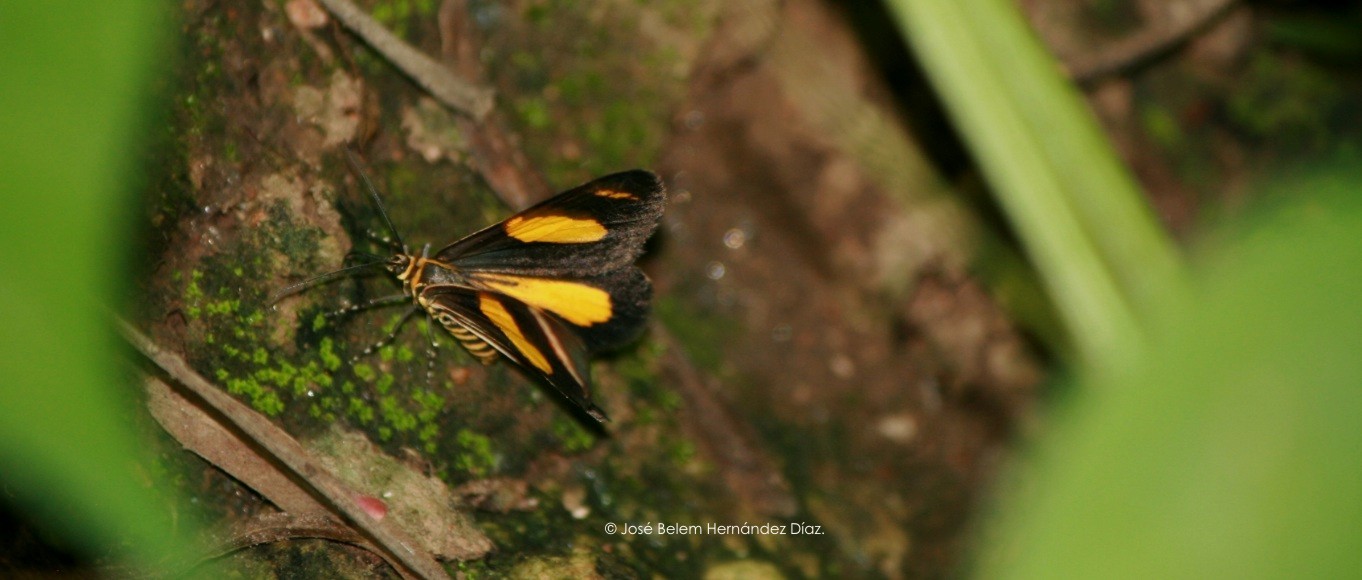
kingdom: Animalia
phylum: Arthropoda
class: Insecta
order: Lepidoptera
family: Geometridae
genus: Eutrepsia
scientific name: Eutrepsia haemataria
